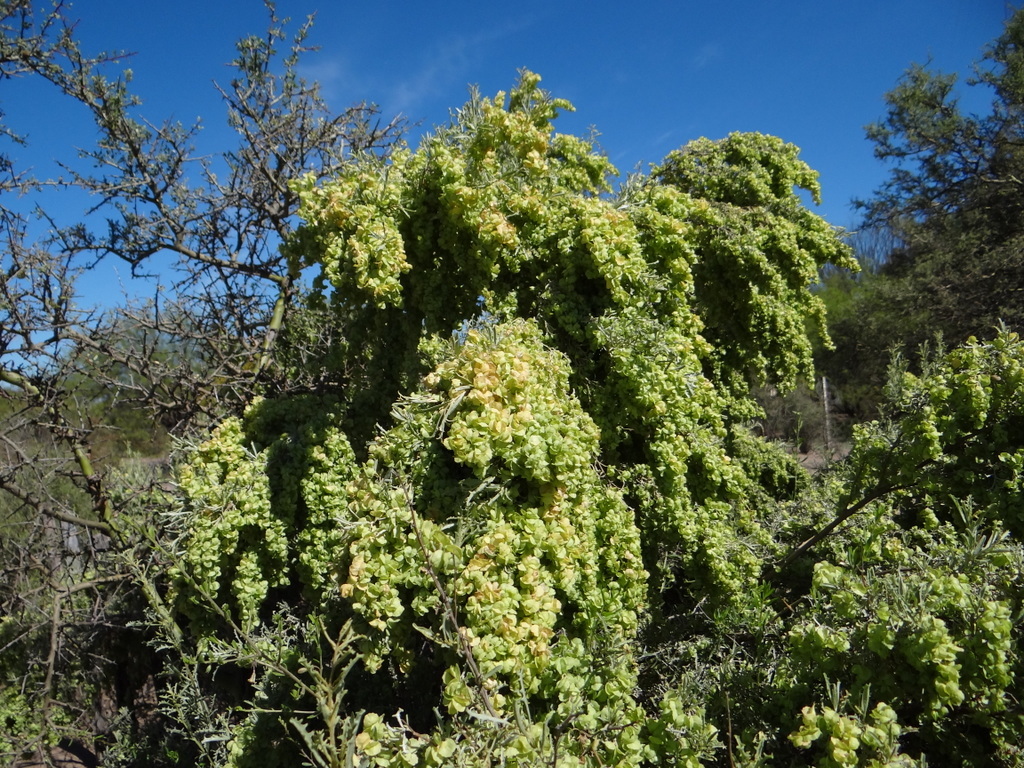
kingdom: Plantae
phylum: Tracheophyta
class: Magnoliopsida
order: Caryophyllales
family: Amaranthaceae
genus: Atriplex
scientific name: Atriplex lampa
